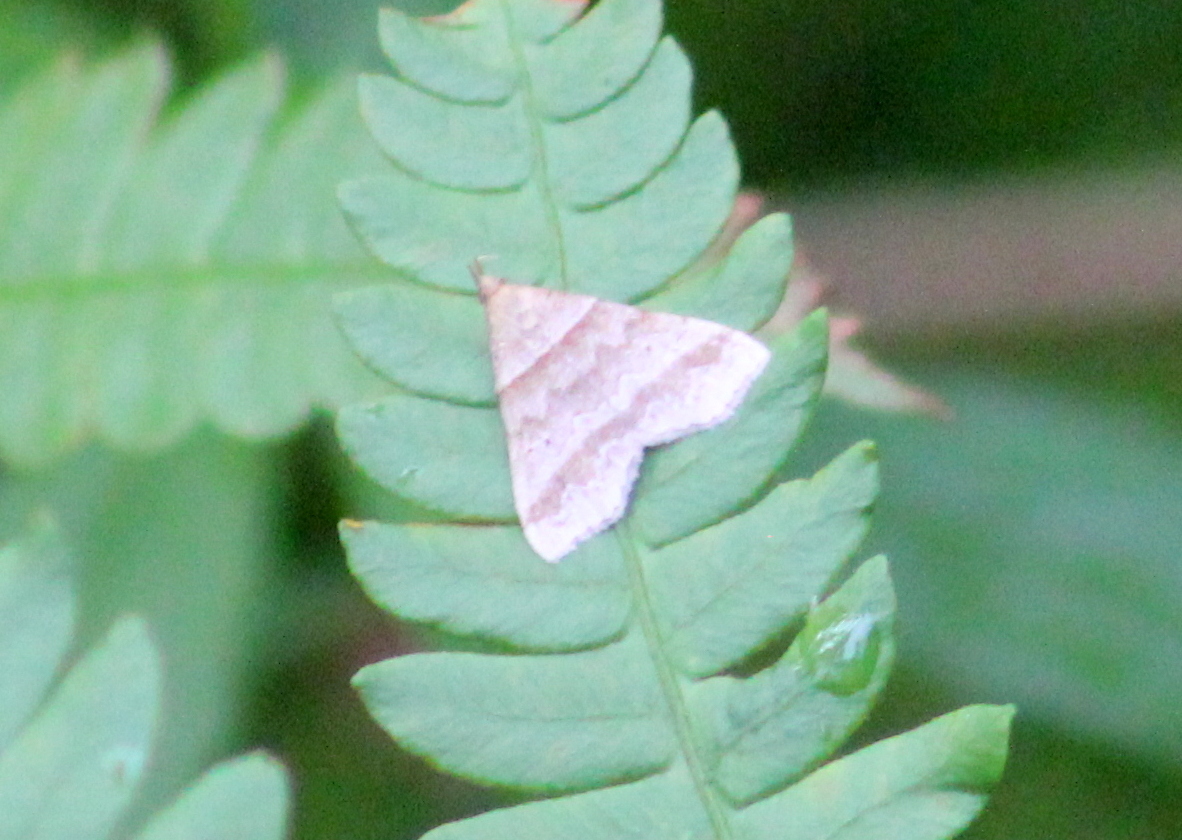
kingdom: Animalia
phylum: Arthropoda
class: Insecta
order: Lepidoptera
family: Erebidae
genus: Phaeolita
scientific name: Phaeolita pyramusalis
